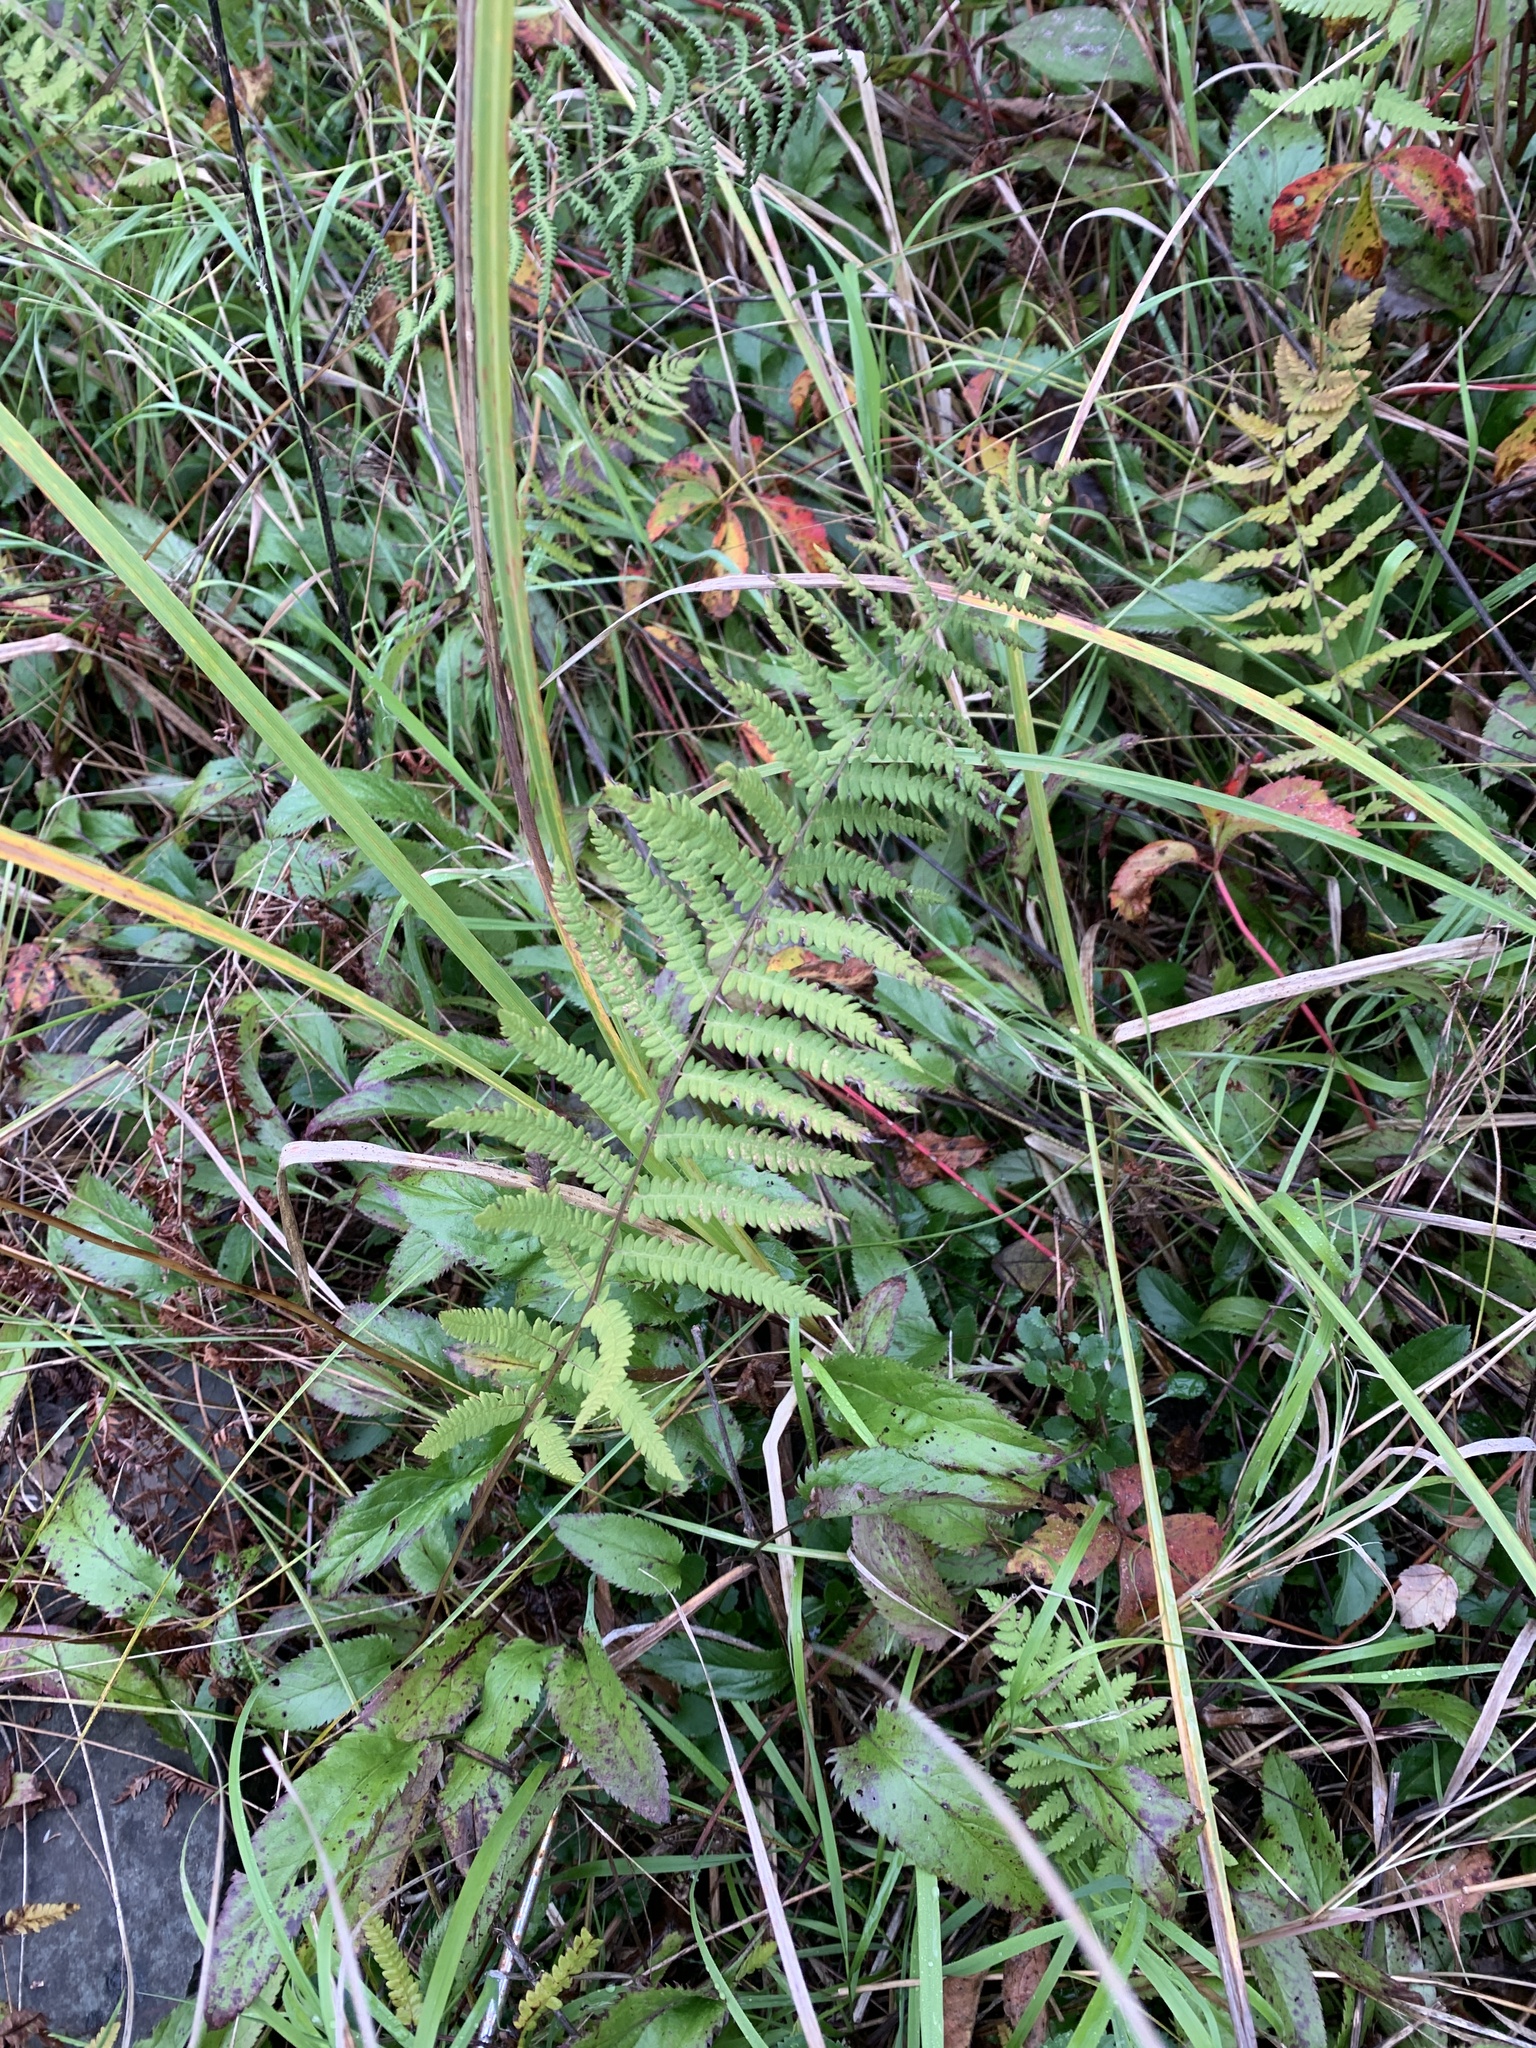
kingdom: Plantae
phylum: Tracheophyta
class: Polypodiopsida
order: Polypodiales
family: Thelypteridaceae
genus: Thelypteris
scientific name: Thelypteris palustris
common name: Marsh fern
